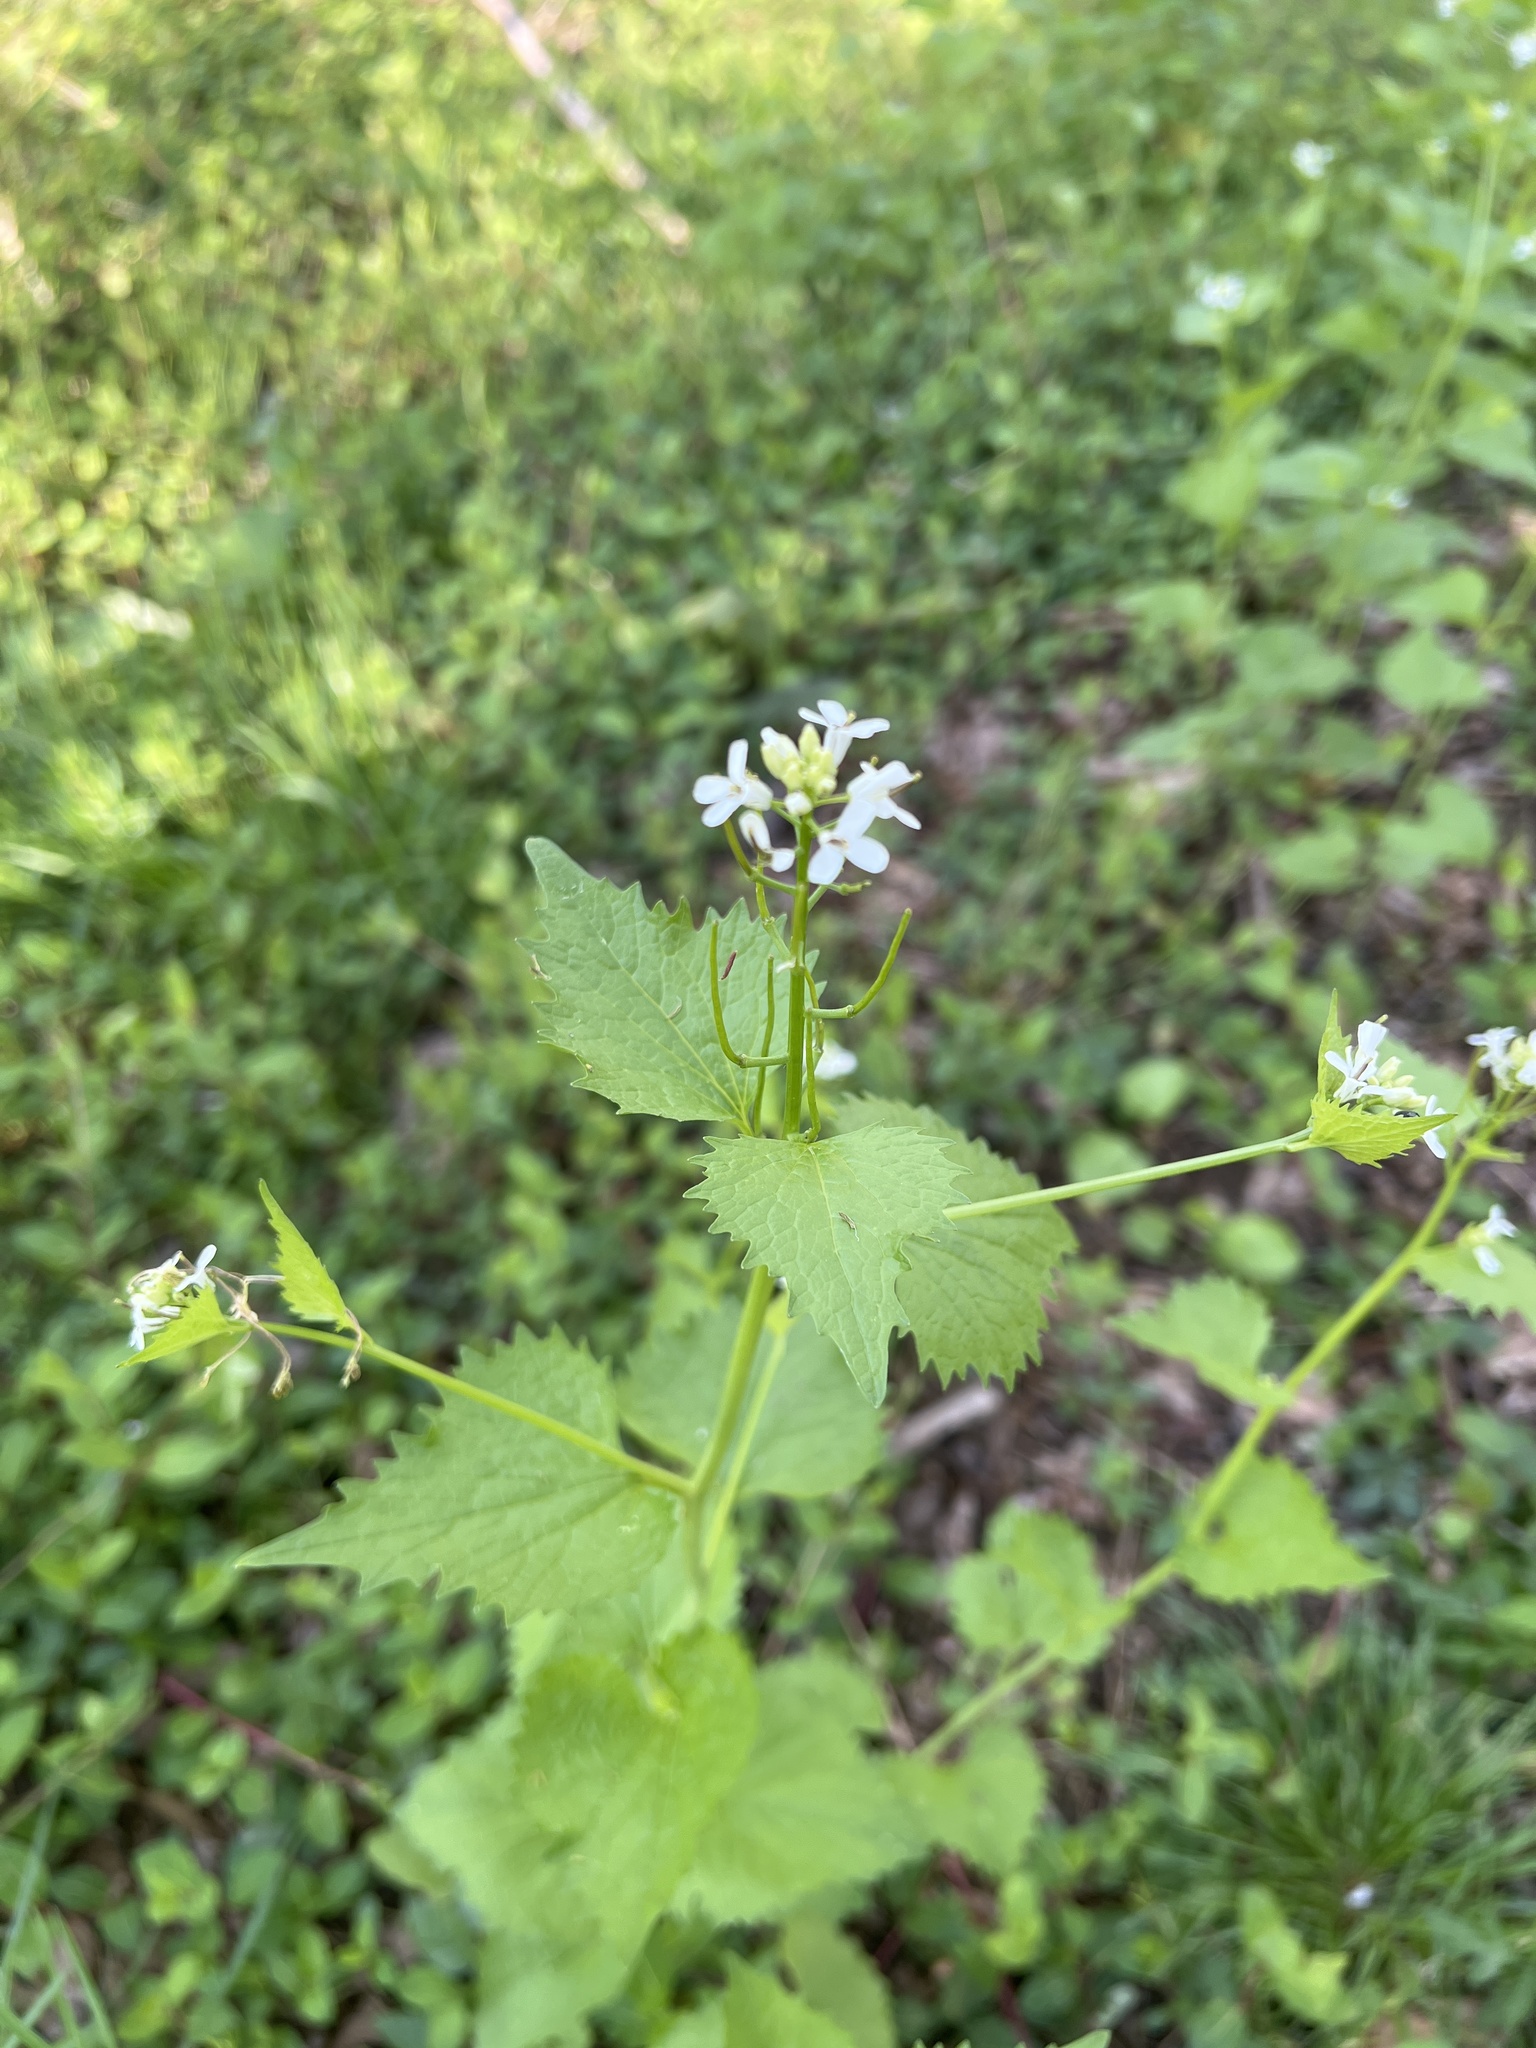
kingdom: Plantae
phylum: Tracheophyta
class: Magnoliopsida
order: Brassicales
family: Brassicaceae
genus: Alliaria
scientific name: Alliaria petiolata
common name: Garlic mustard
